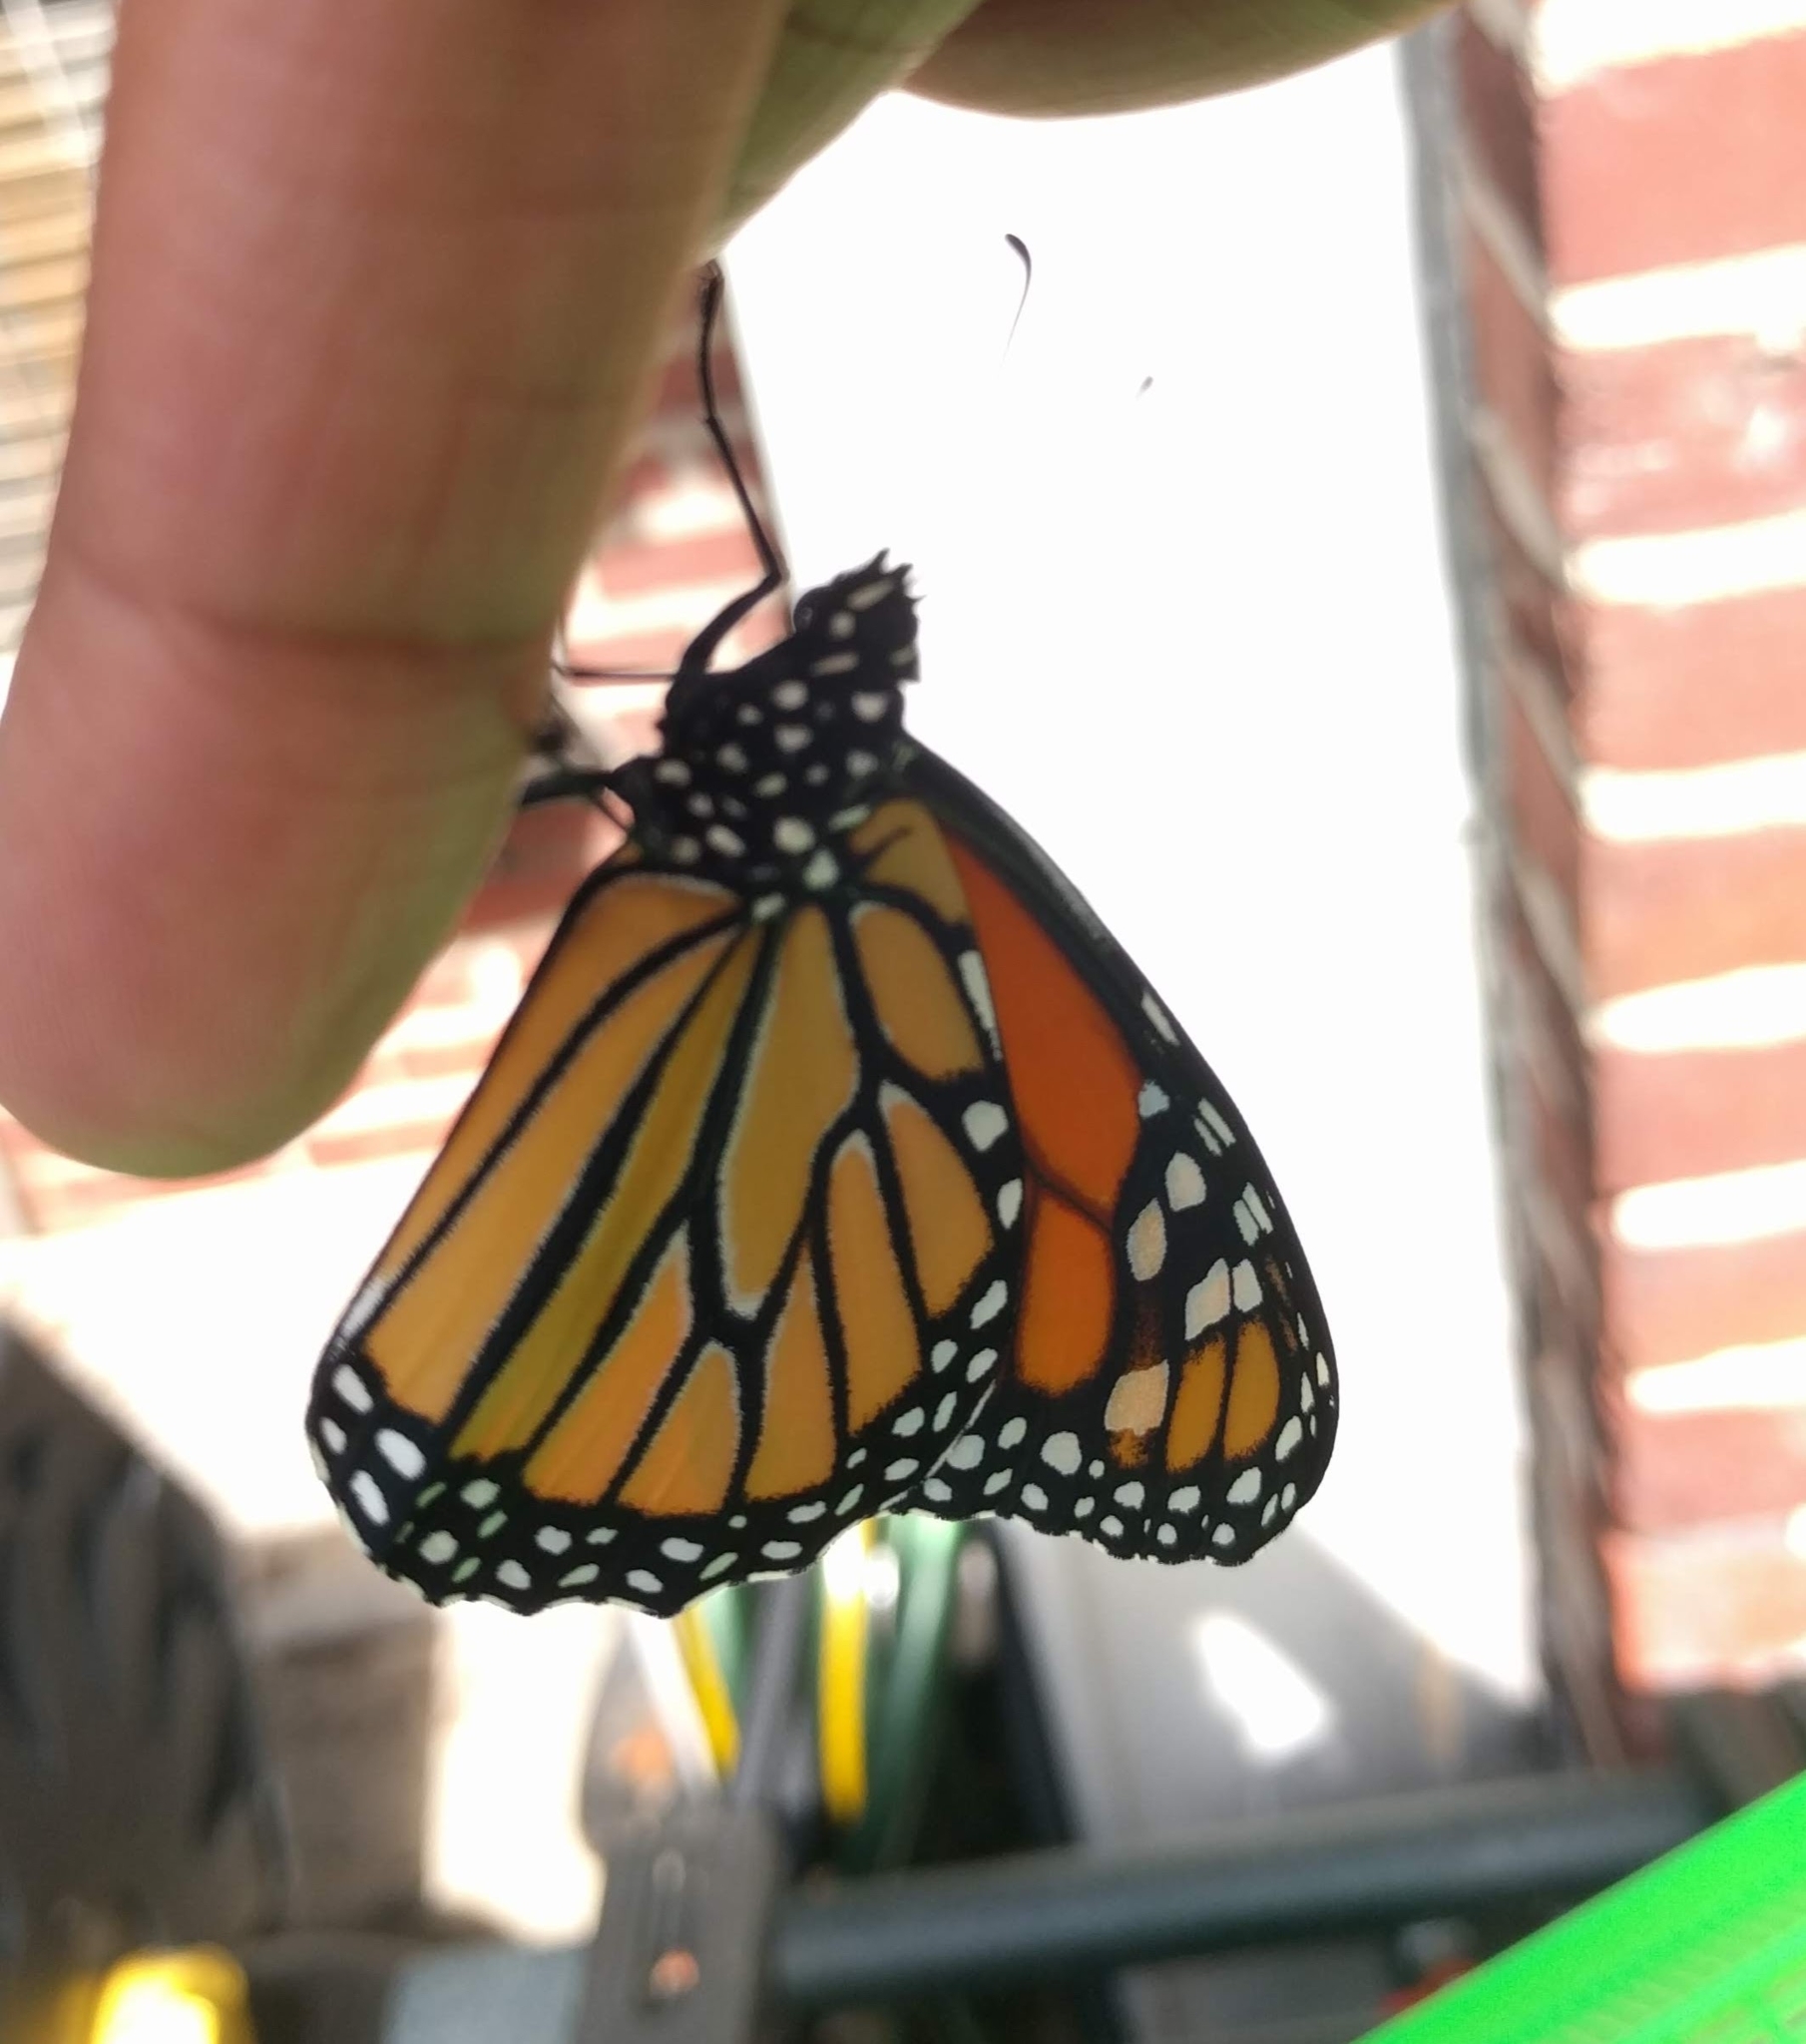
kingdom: Animalia
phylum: Arthropoda
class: Insecta
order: Lepidoptera
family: Nymphalidae
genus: Danaus
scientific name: Danaus plexippus
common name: Monarch
